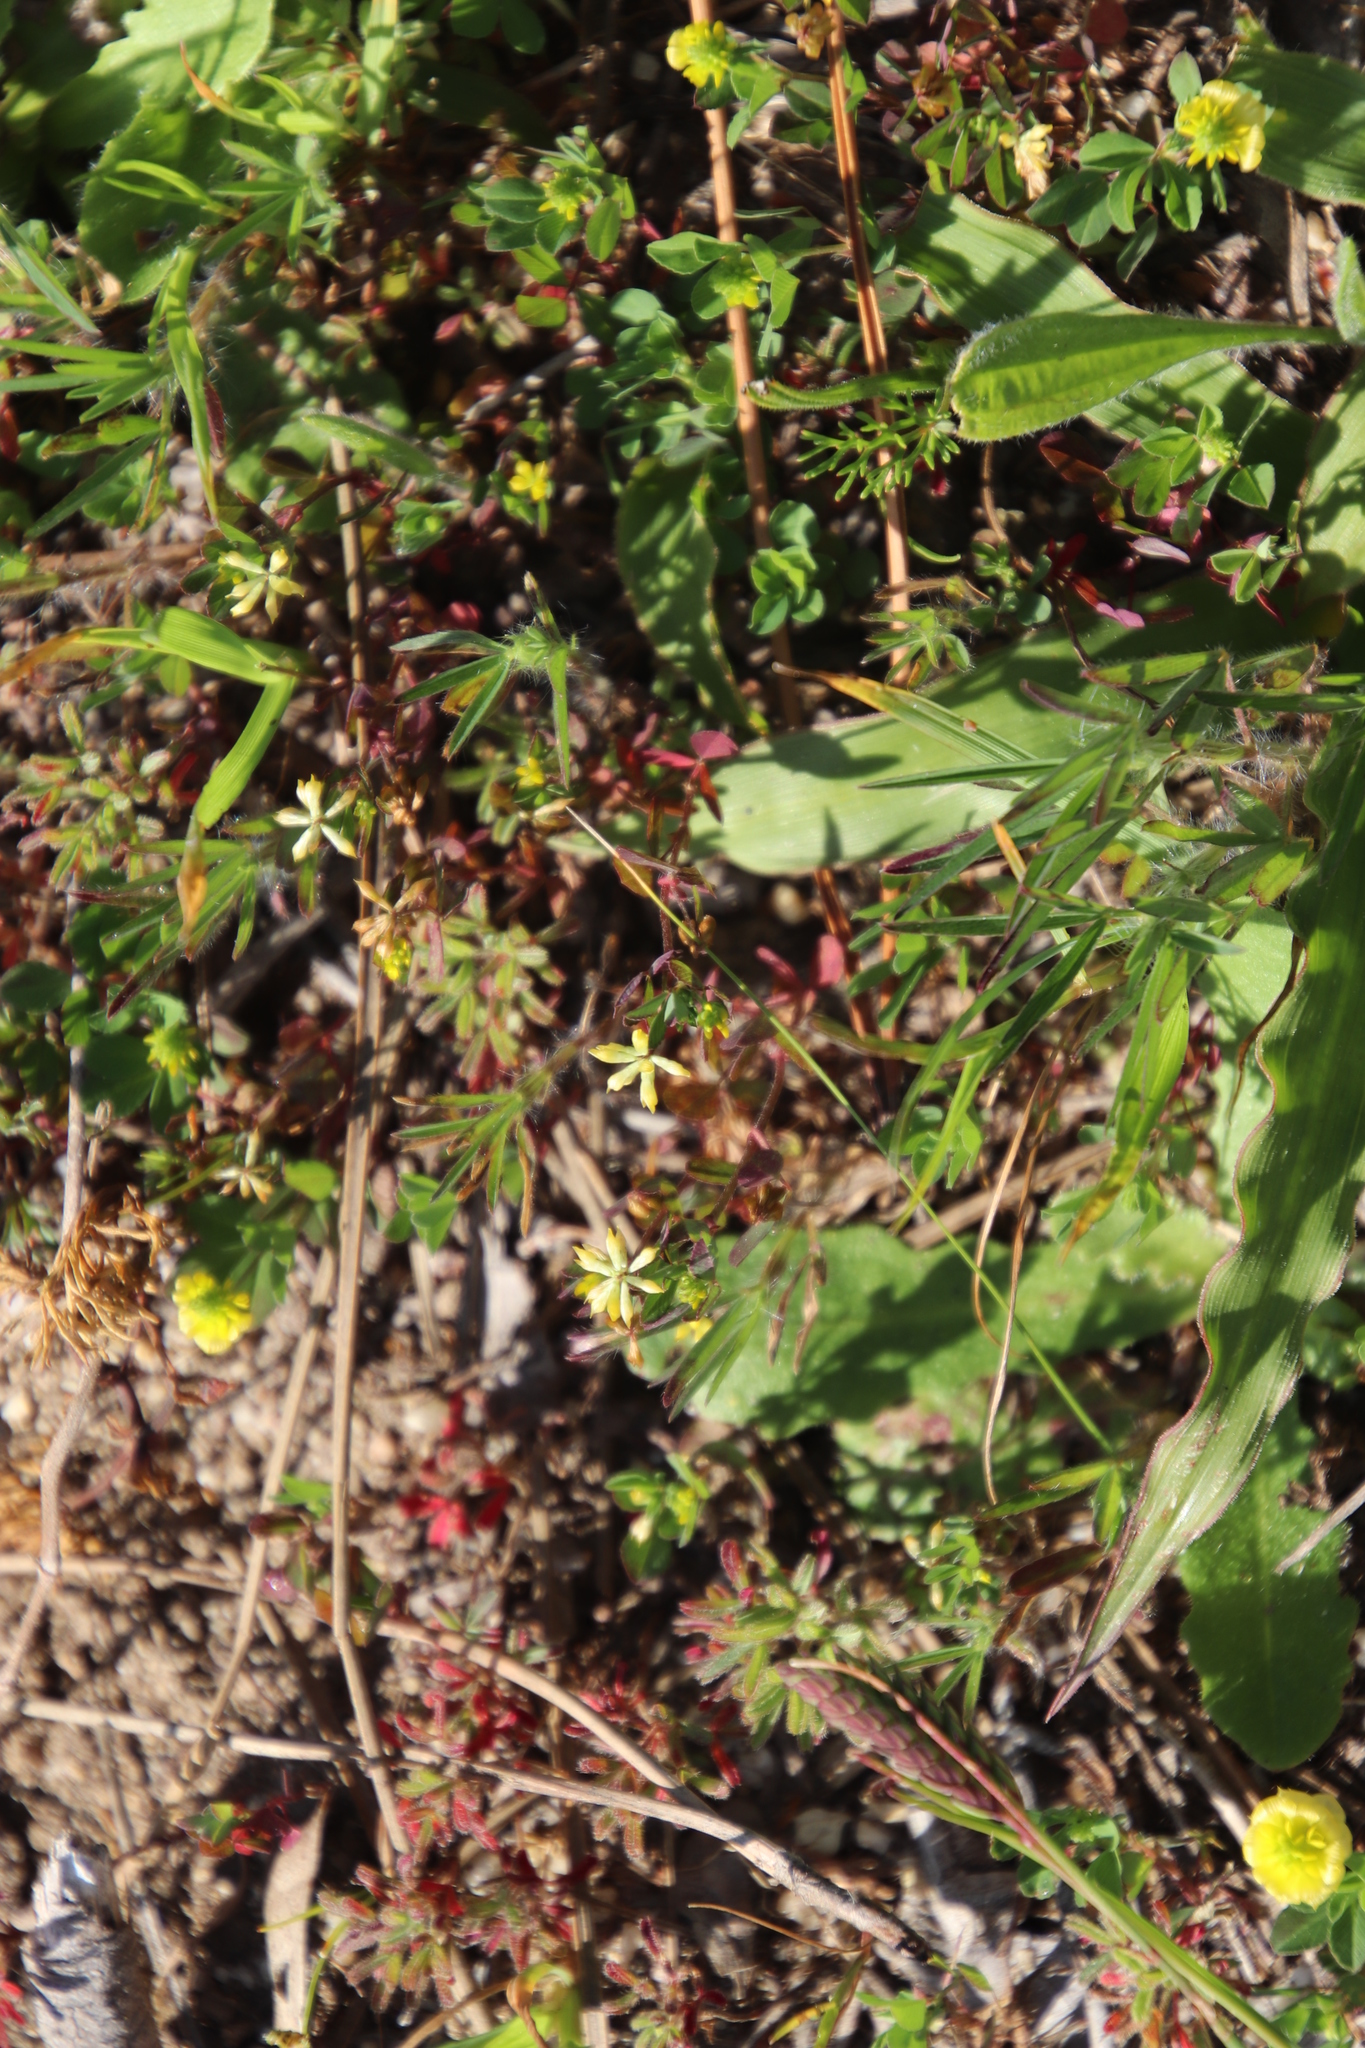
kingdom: Plantae
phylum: Tracheophyta
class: Magnoliopsida
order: Fabales
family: Fabaceae
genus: Trifolium
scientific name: Trifolium dubium
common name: Suckling clover
